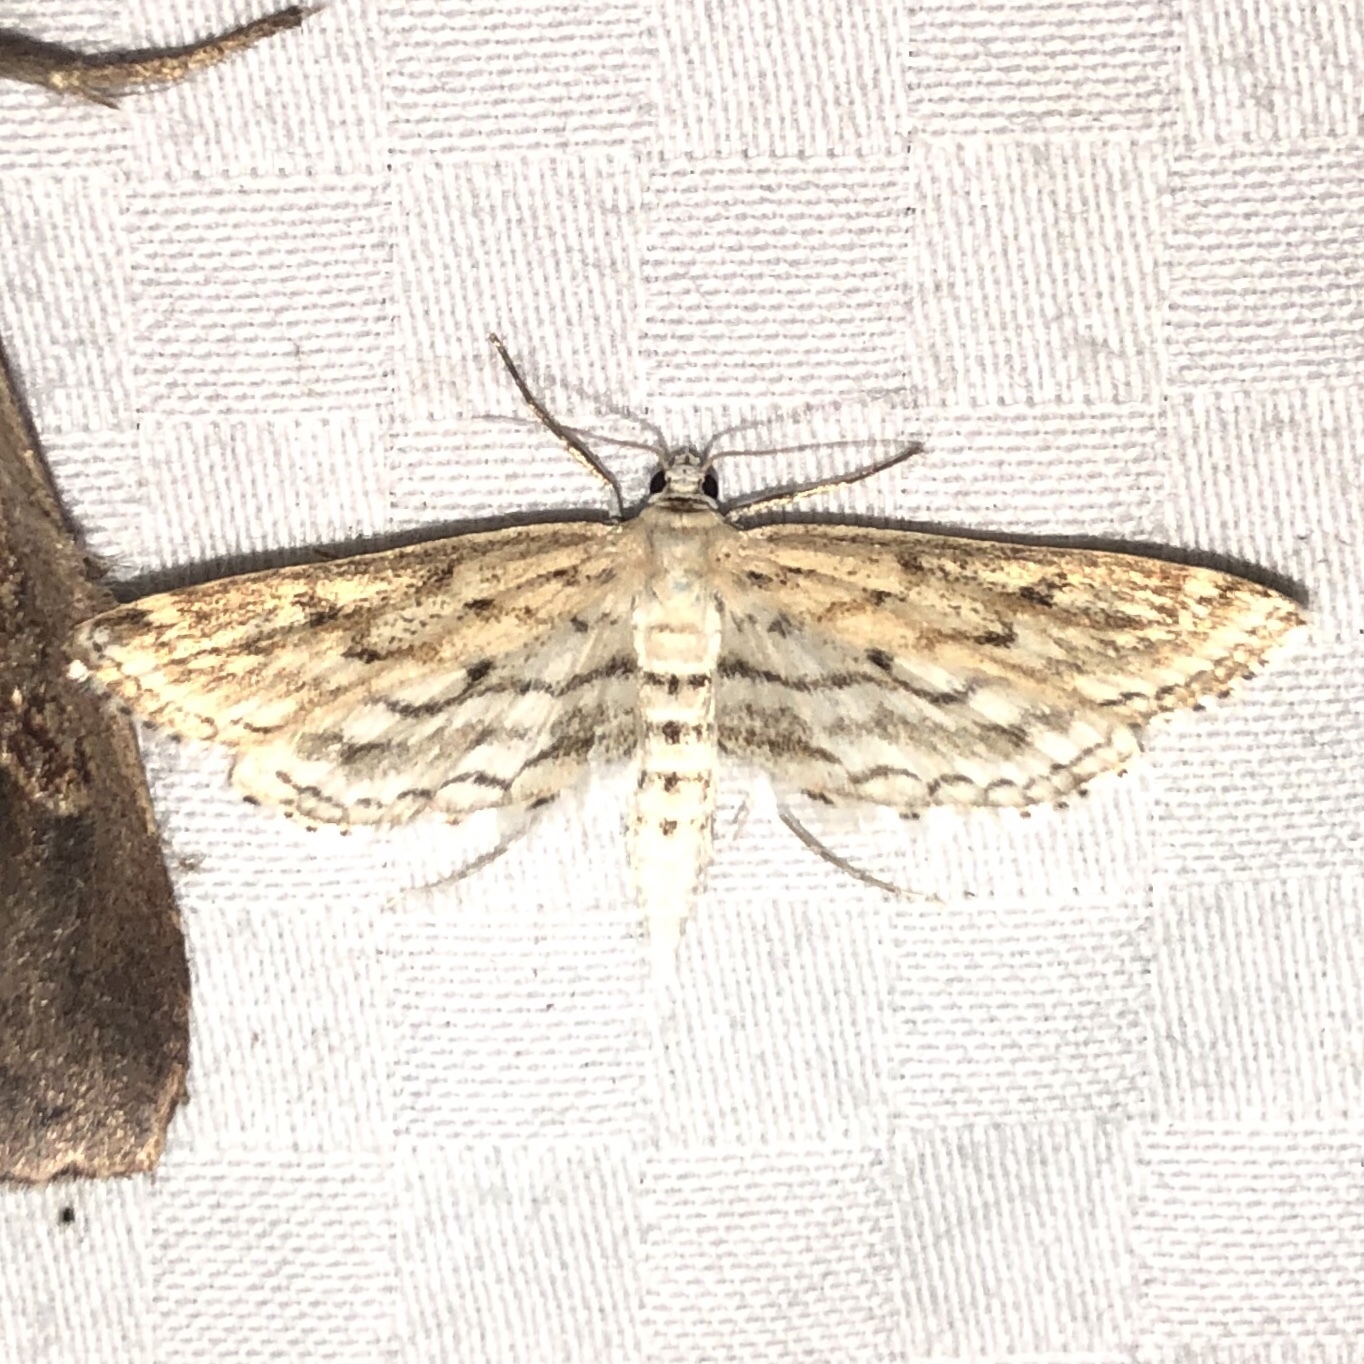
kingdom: Animalia
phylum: Arthropoda
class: Insecta
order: Lepidoptera
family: Crambidae
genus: Parapoynx
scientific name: Parapoynx allionealis
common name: Bladderwort casemaker
